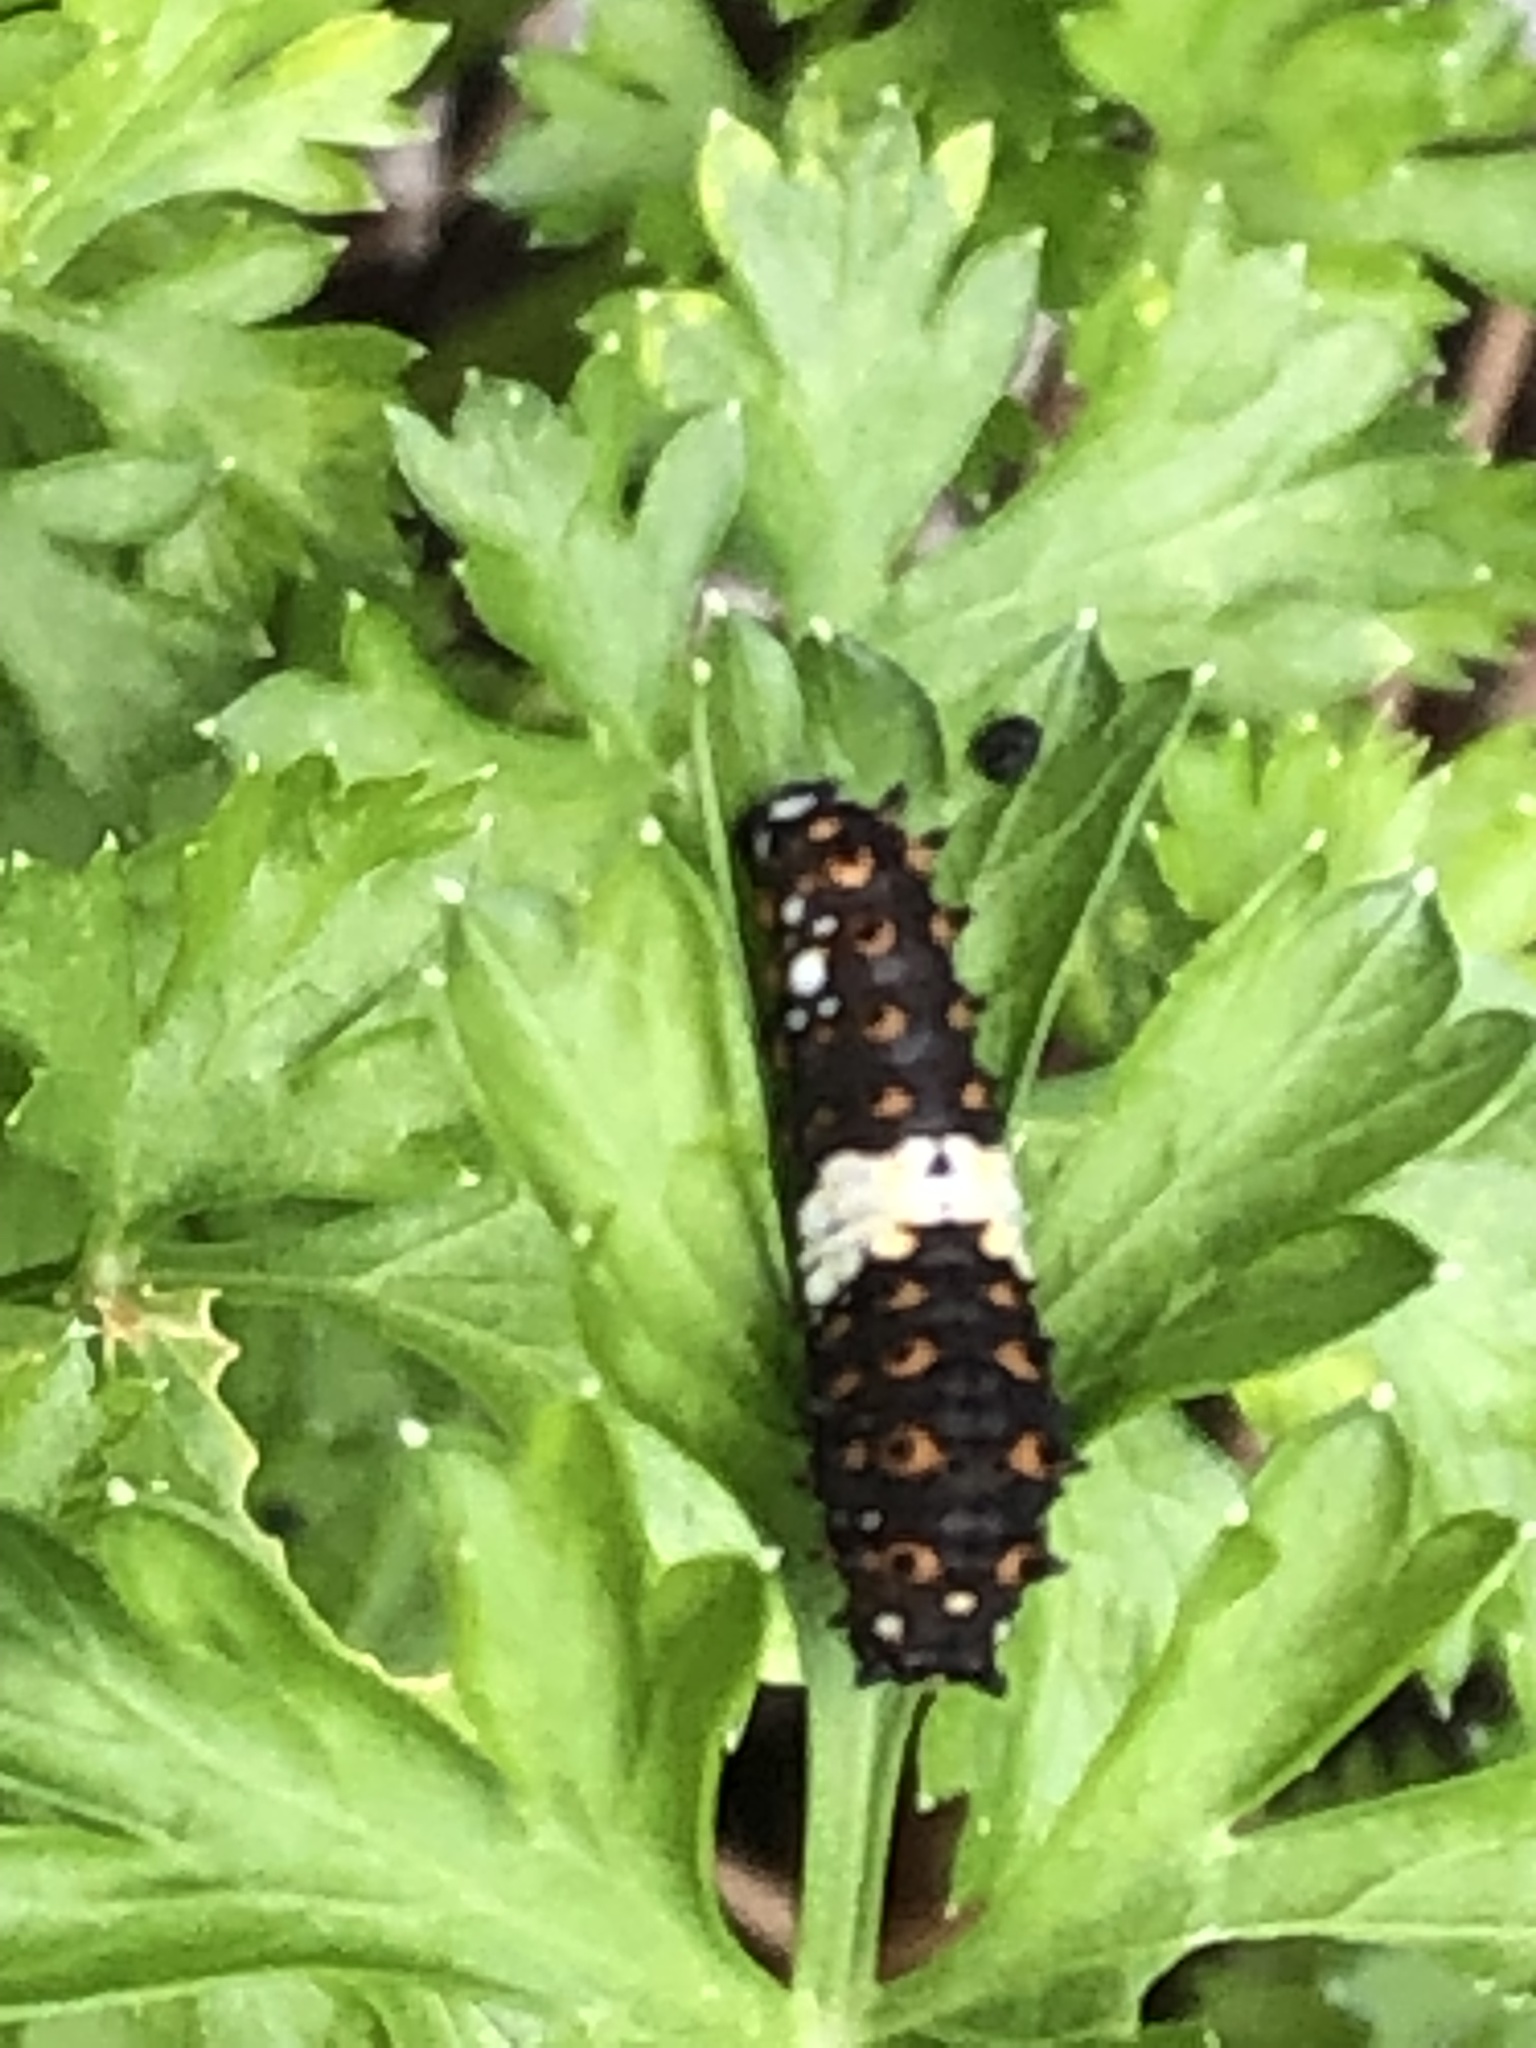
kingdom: Animalia
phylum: Arthropoda
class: Insecta
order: Lepidoptera
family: Papilionidae
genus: Papilio
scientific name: Papilio polyxenes
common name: Black swallowtail
